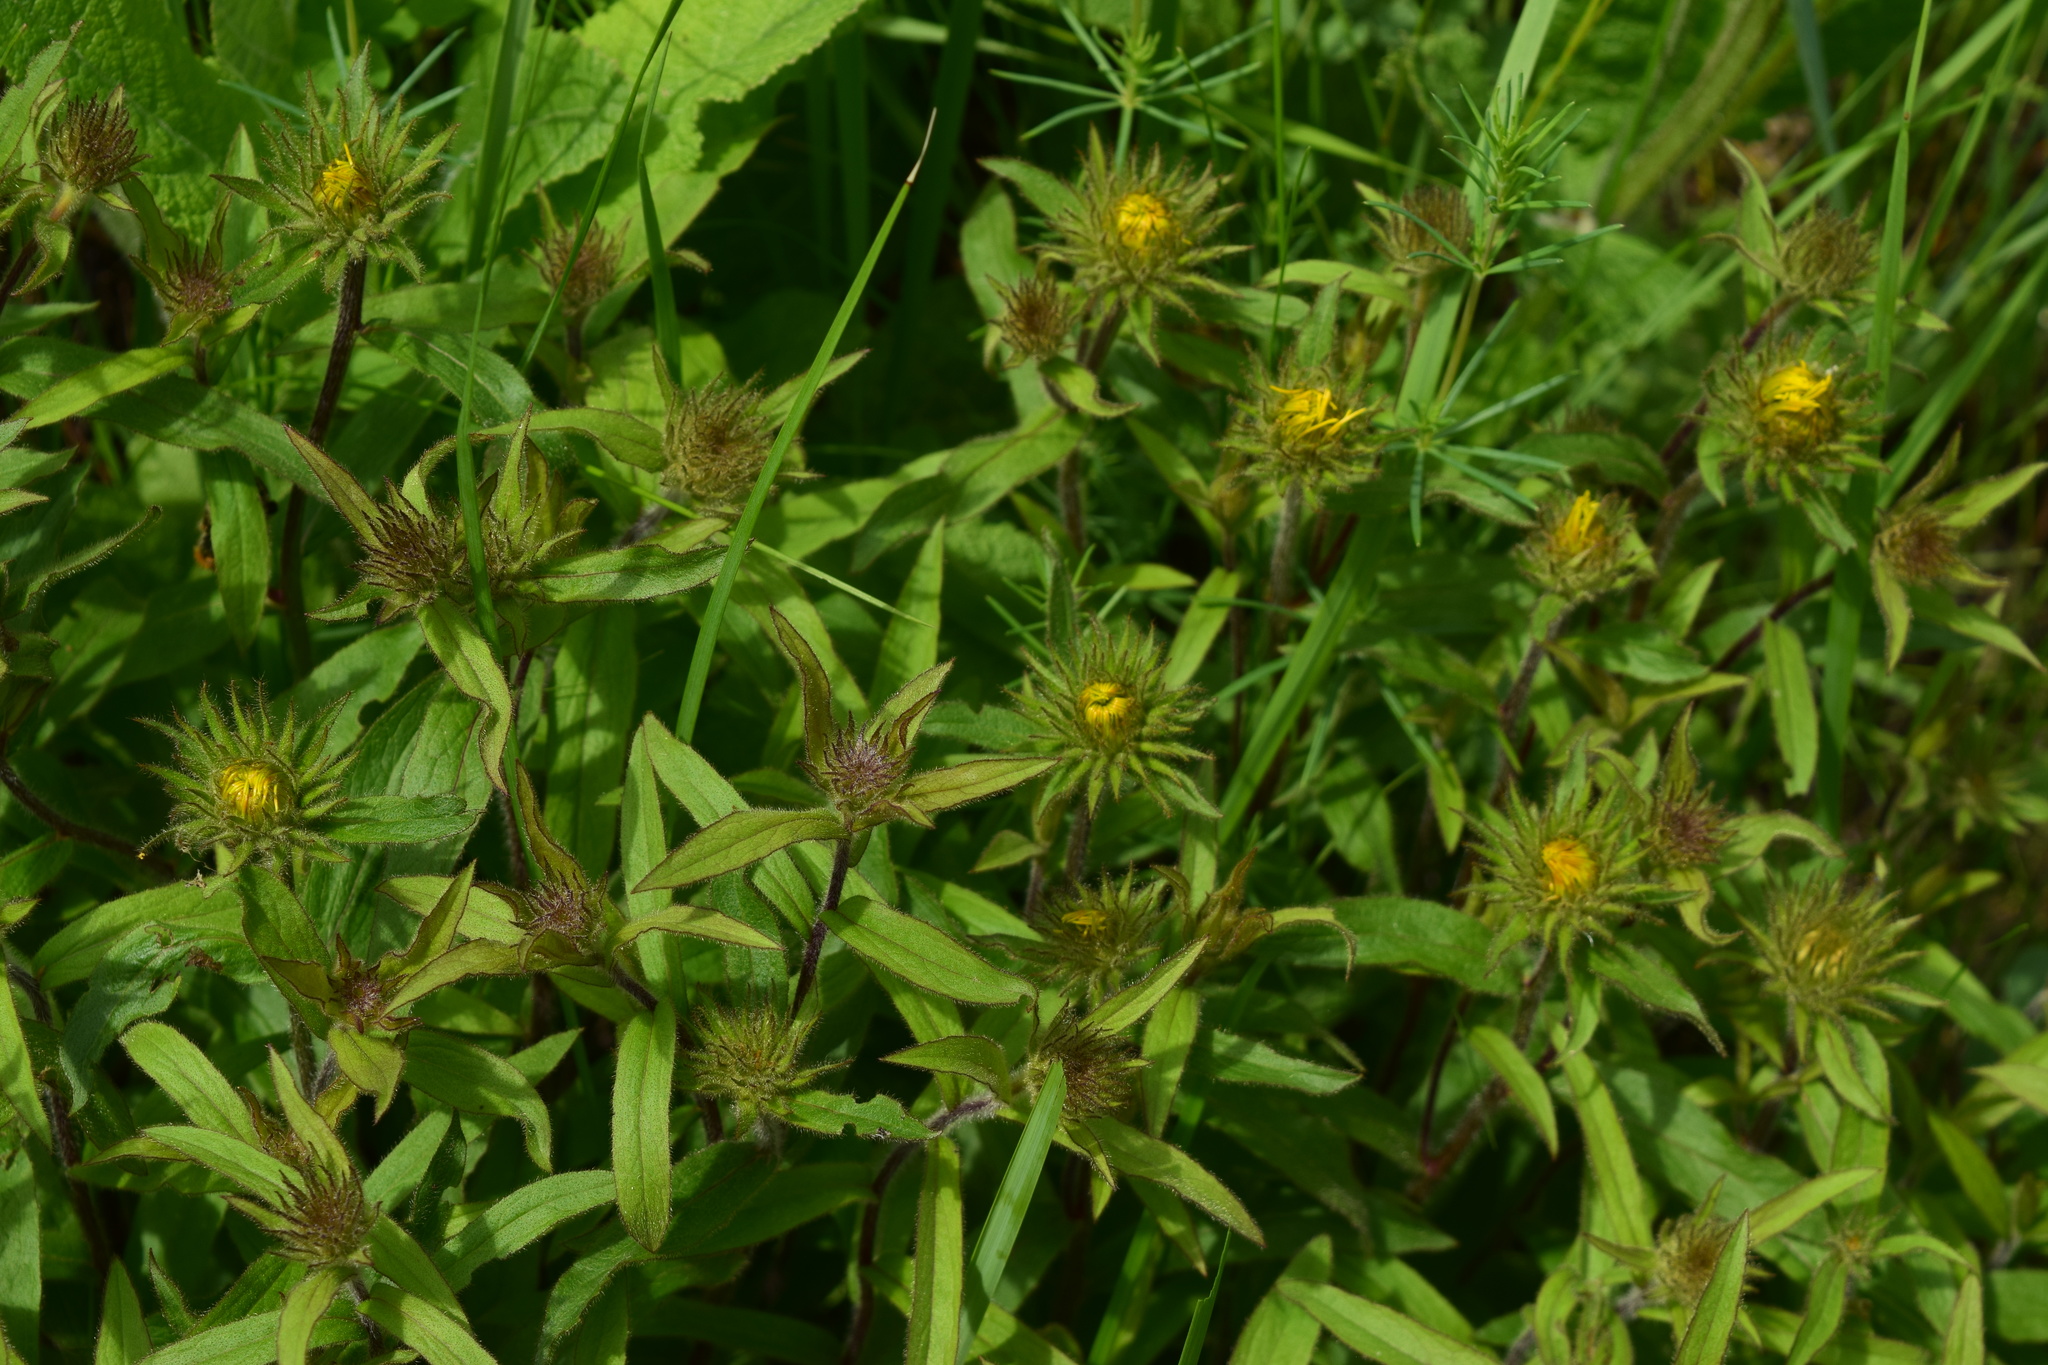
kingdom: Plantae
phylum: Tracheophyta
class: Magnoliopsida
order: Asterales
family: Asteraceae
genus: Pentanema
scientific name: Pentanema hirtum
